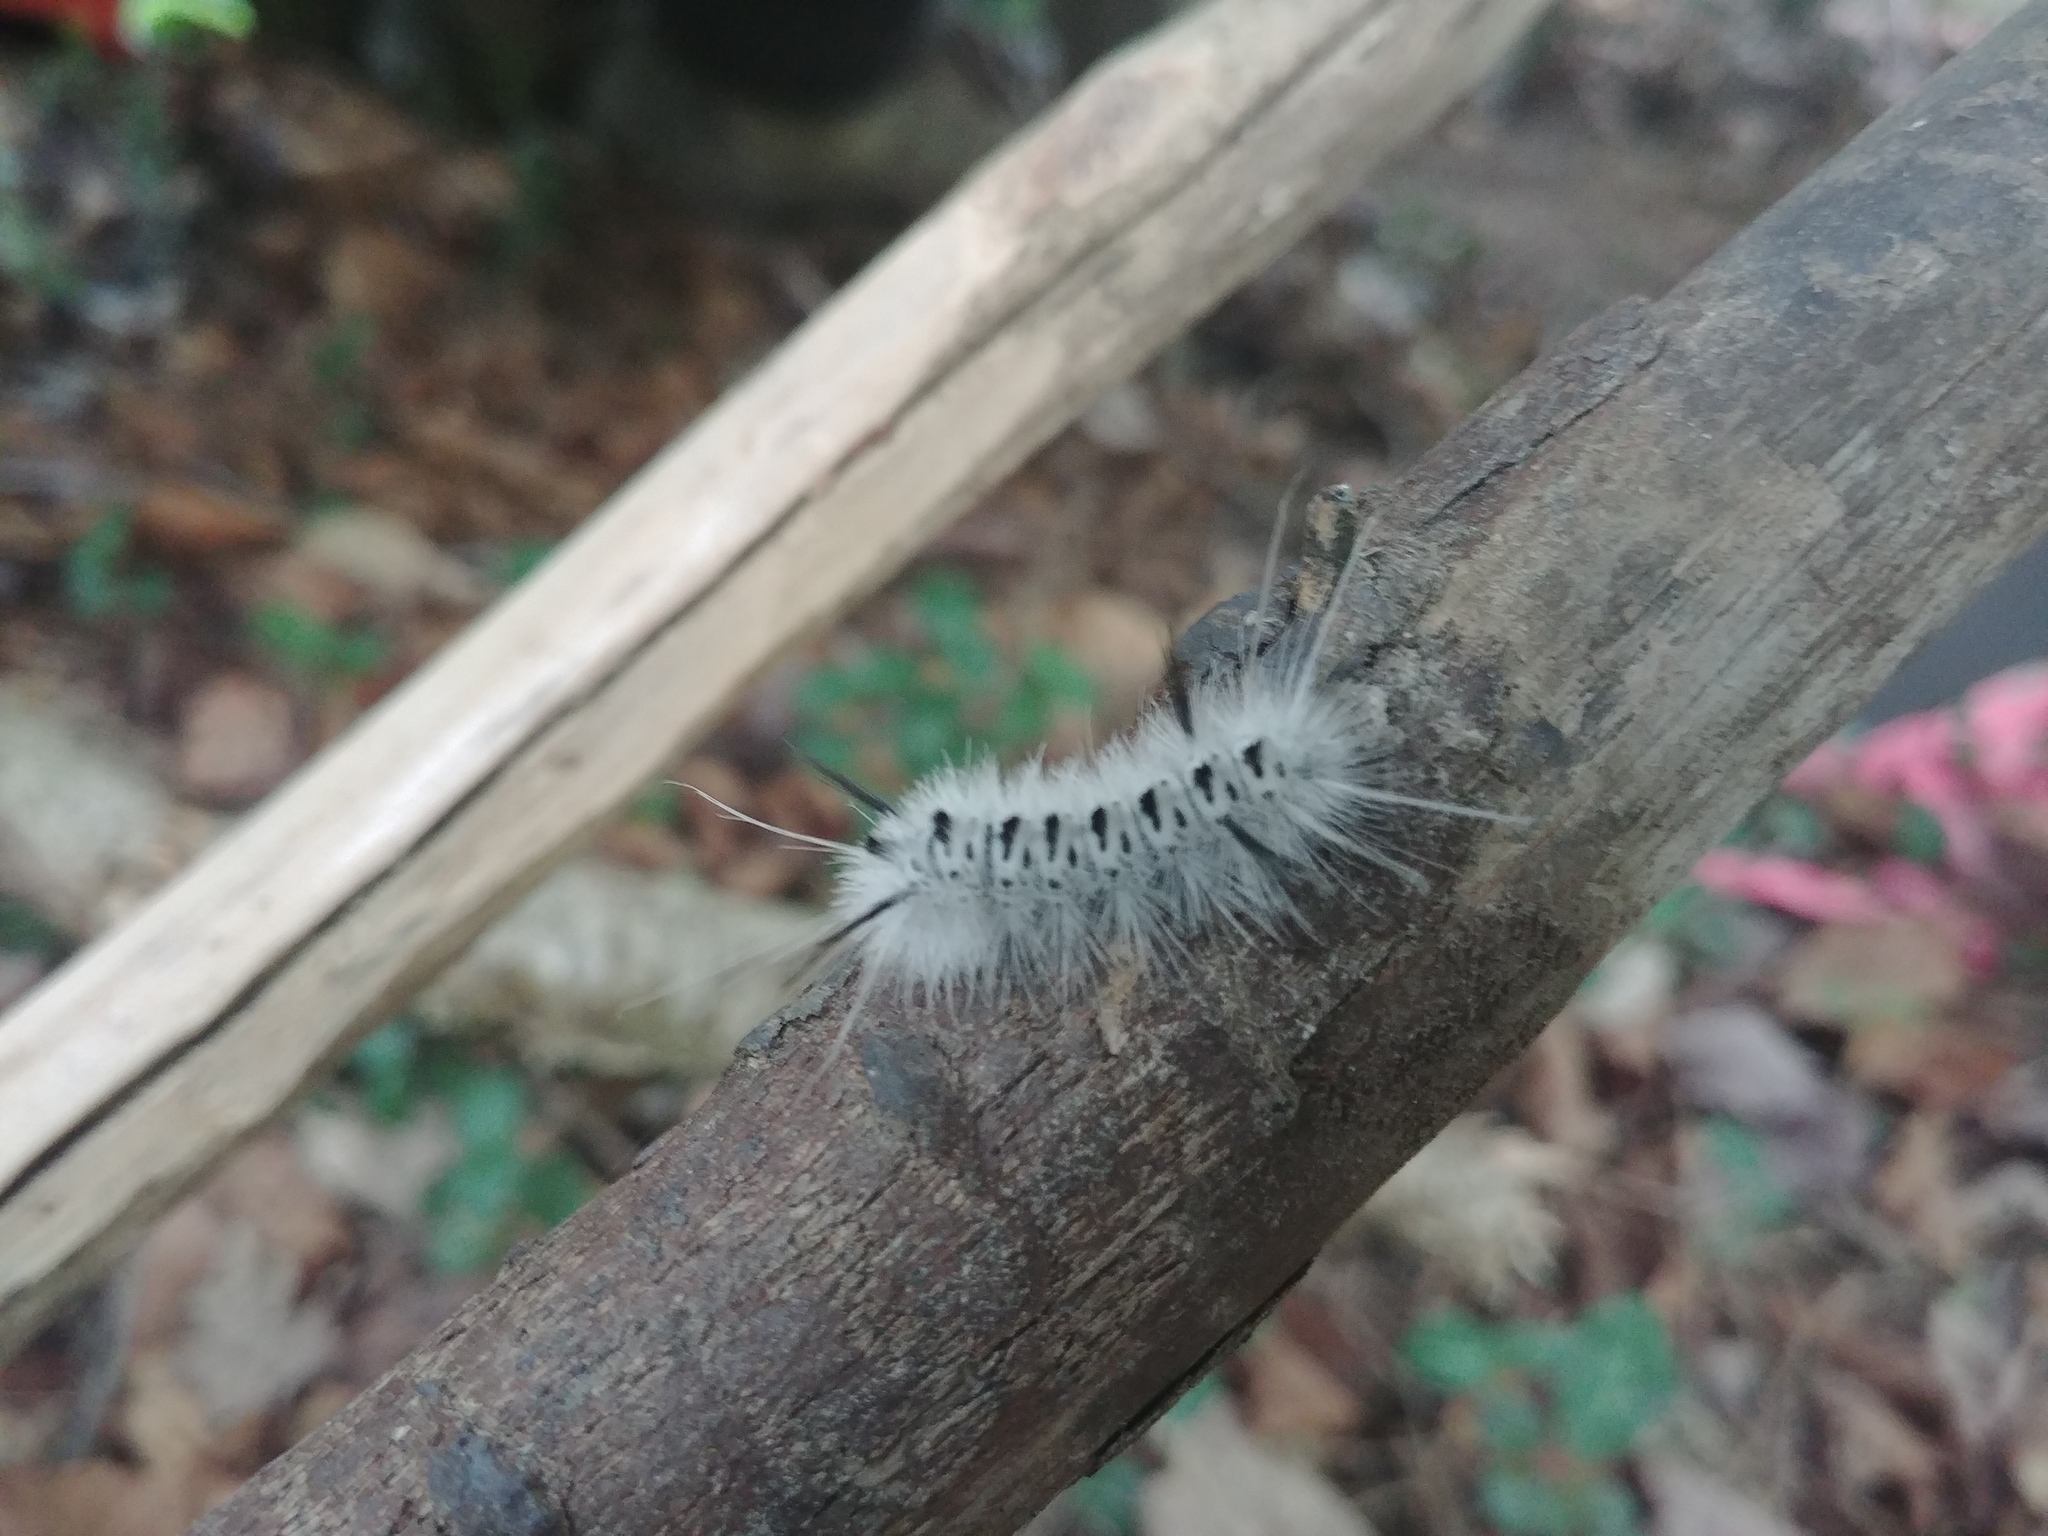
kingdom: Animalia
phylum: Arthropoda
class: Insecta
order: Lepidoptera
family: Erebidae
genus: Lophocampa
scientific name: Lophocampa caryae
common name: Hickory tussock moth
